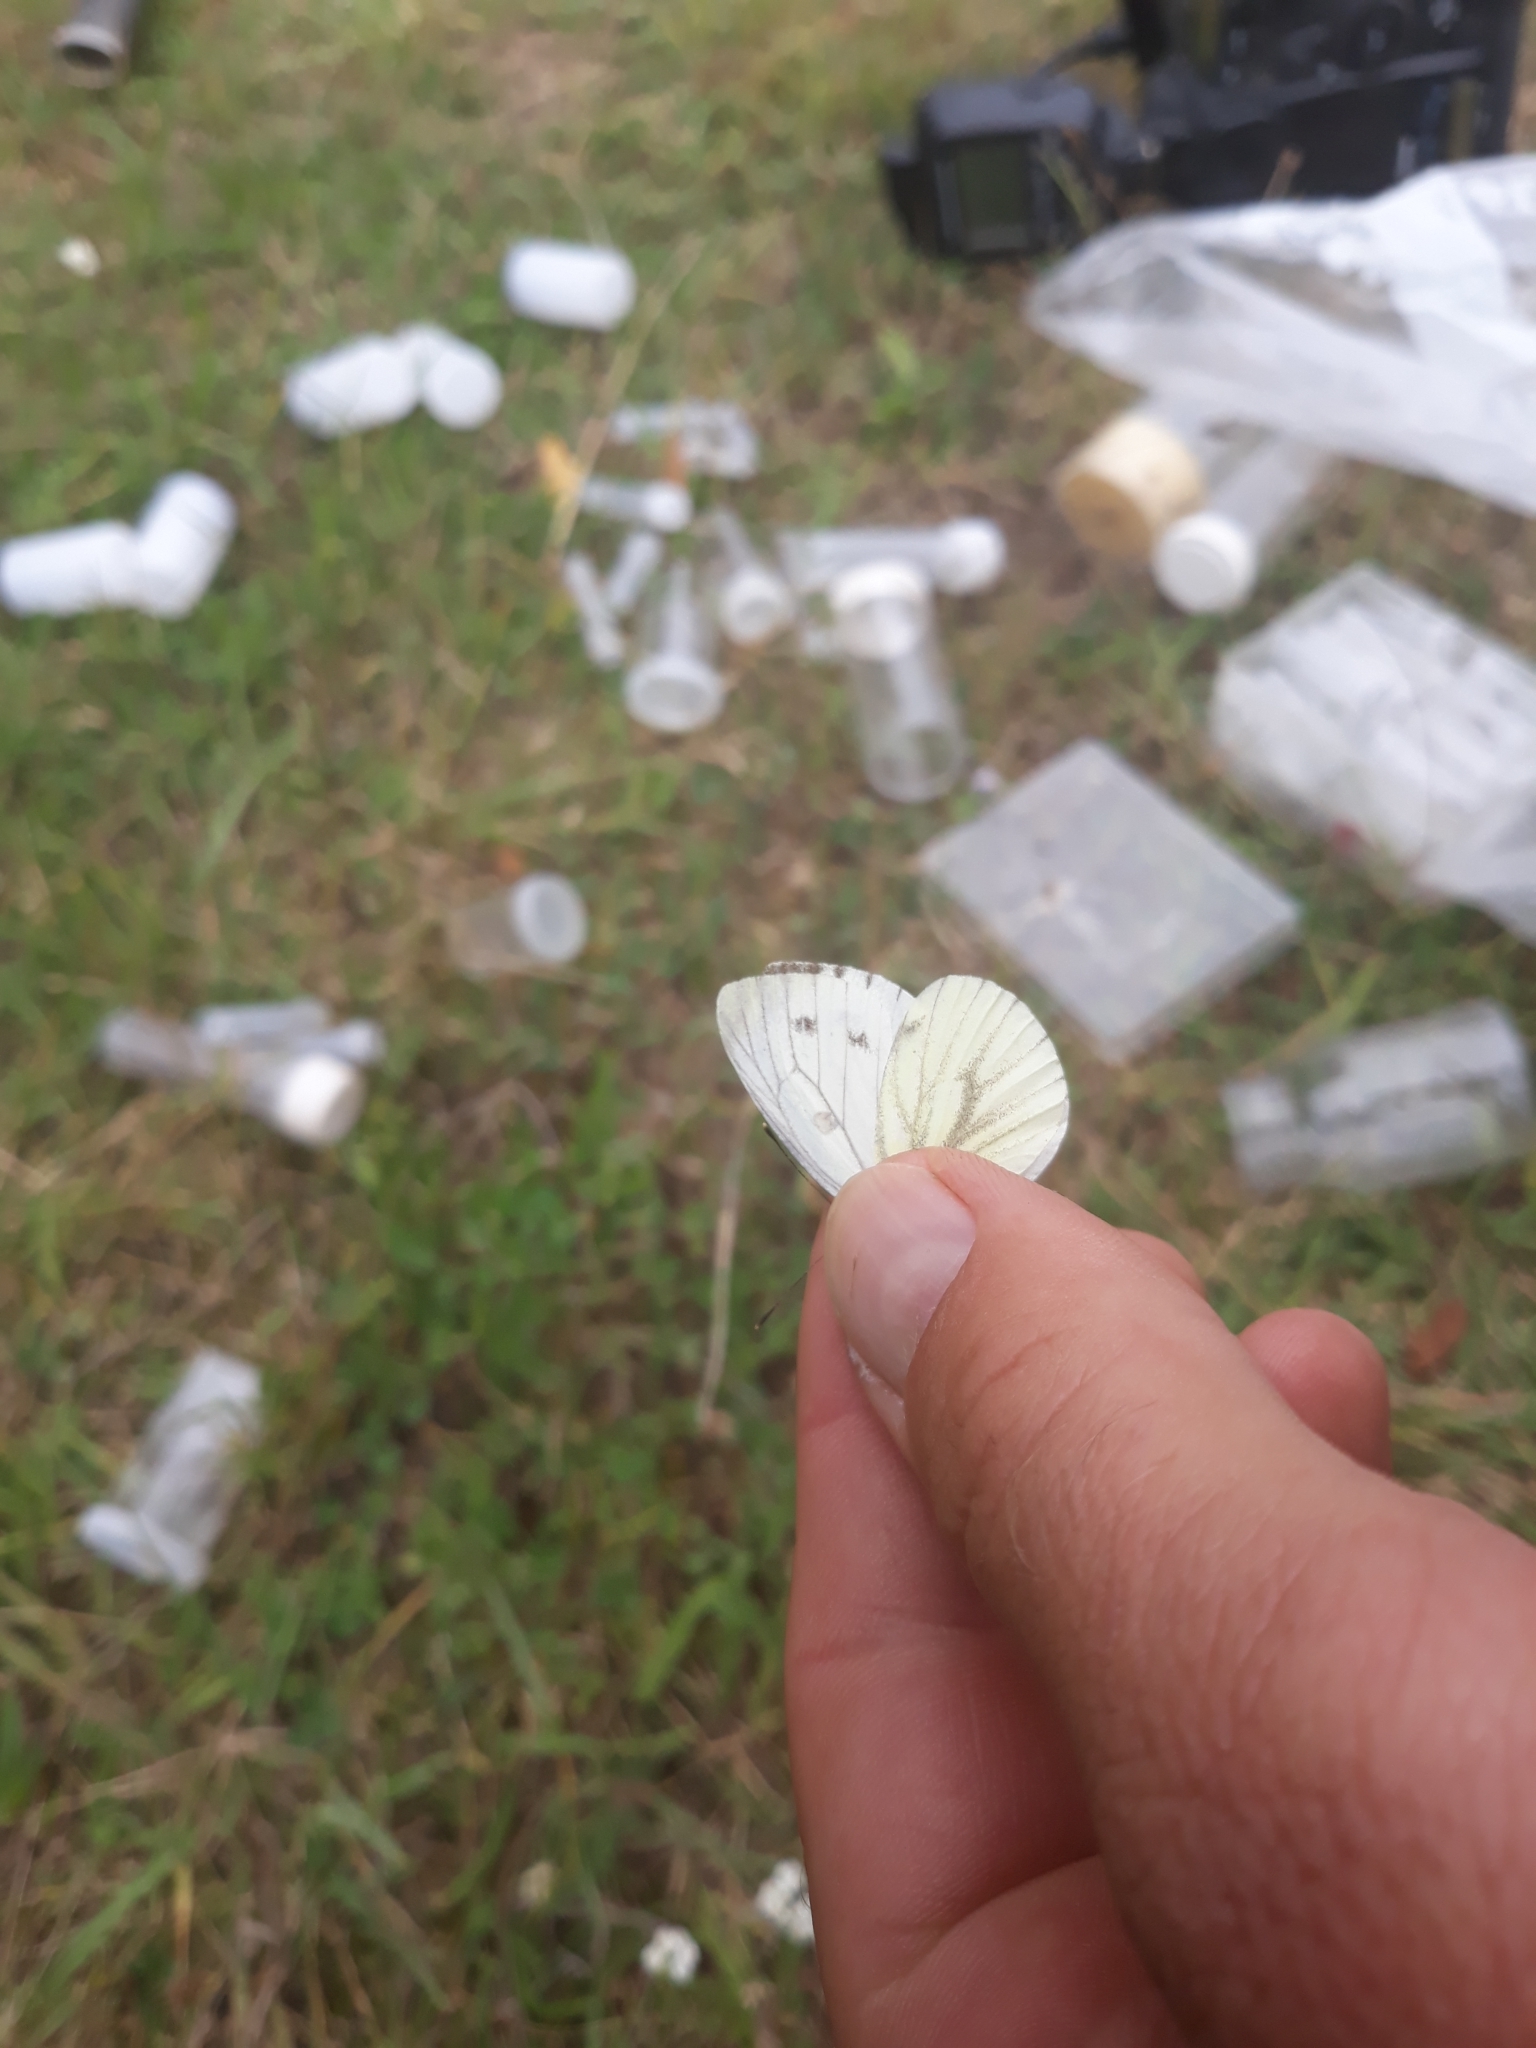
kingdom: Animalia
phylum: Arthropoda
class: Insecta
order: Lepidoptera
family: Pieridae
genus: Pieris
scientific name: Pieris napi
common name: Green-veined white
